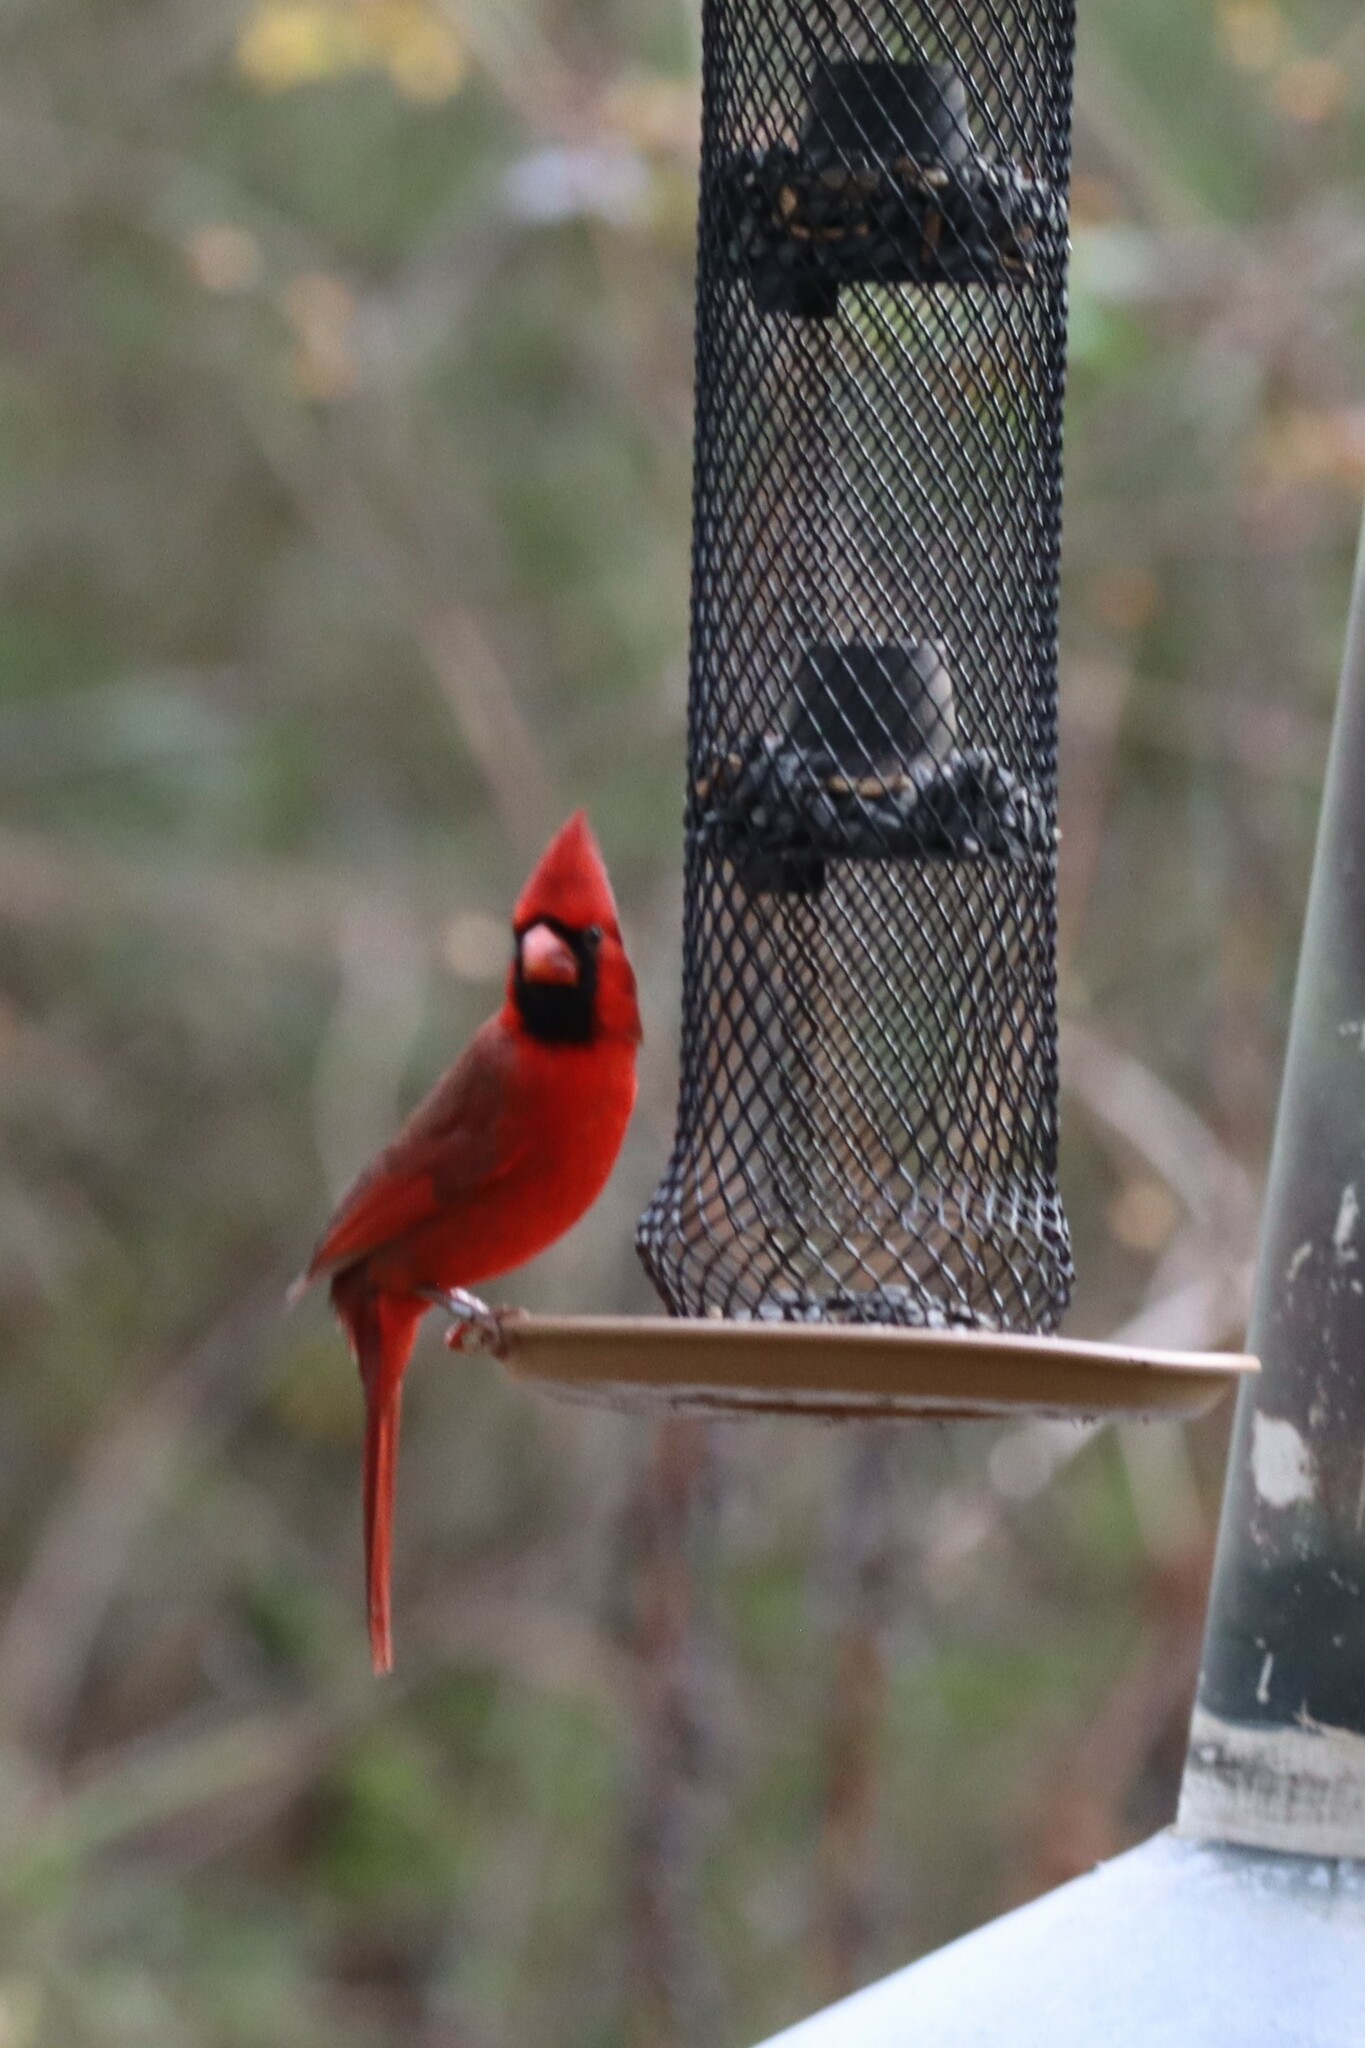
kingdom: Animalia
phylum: Chordata
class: Aves
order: Passeriformes
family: Cardinalidae
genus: Cardinalis
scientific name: Cardinalis cardinalis
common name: Northern cardinal
